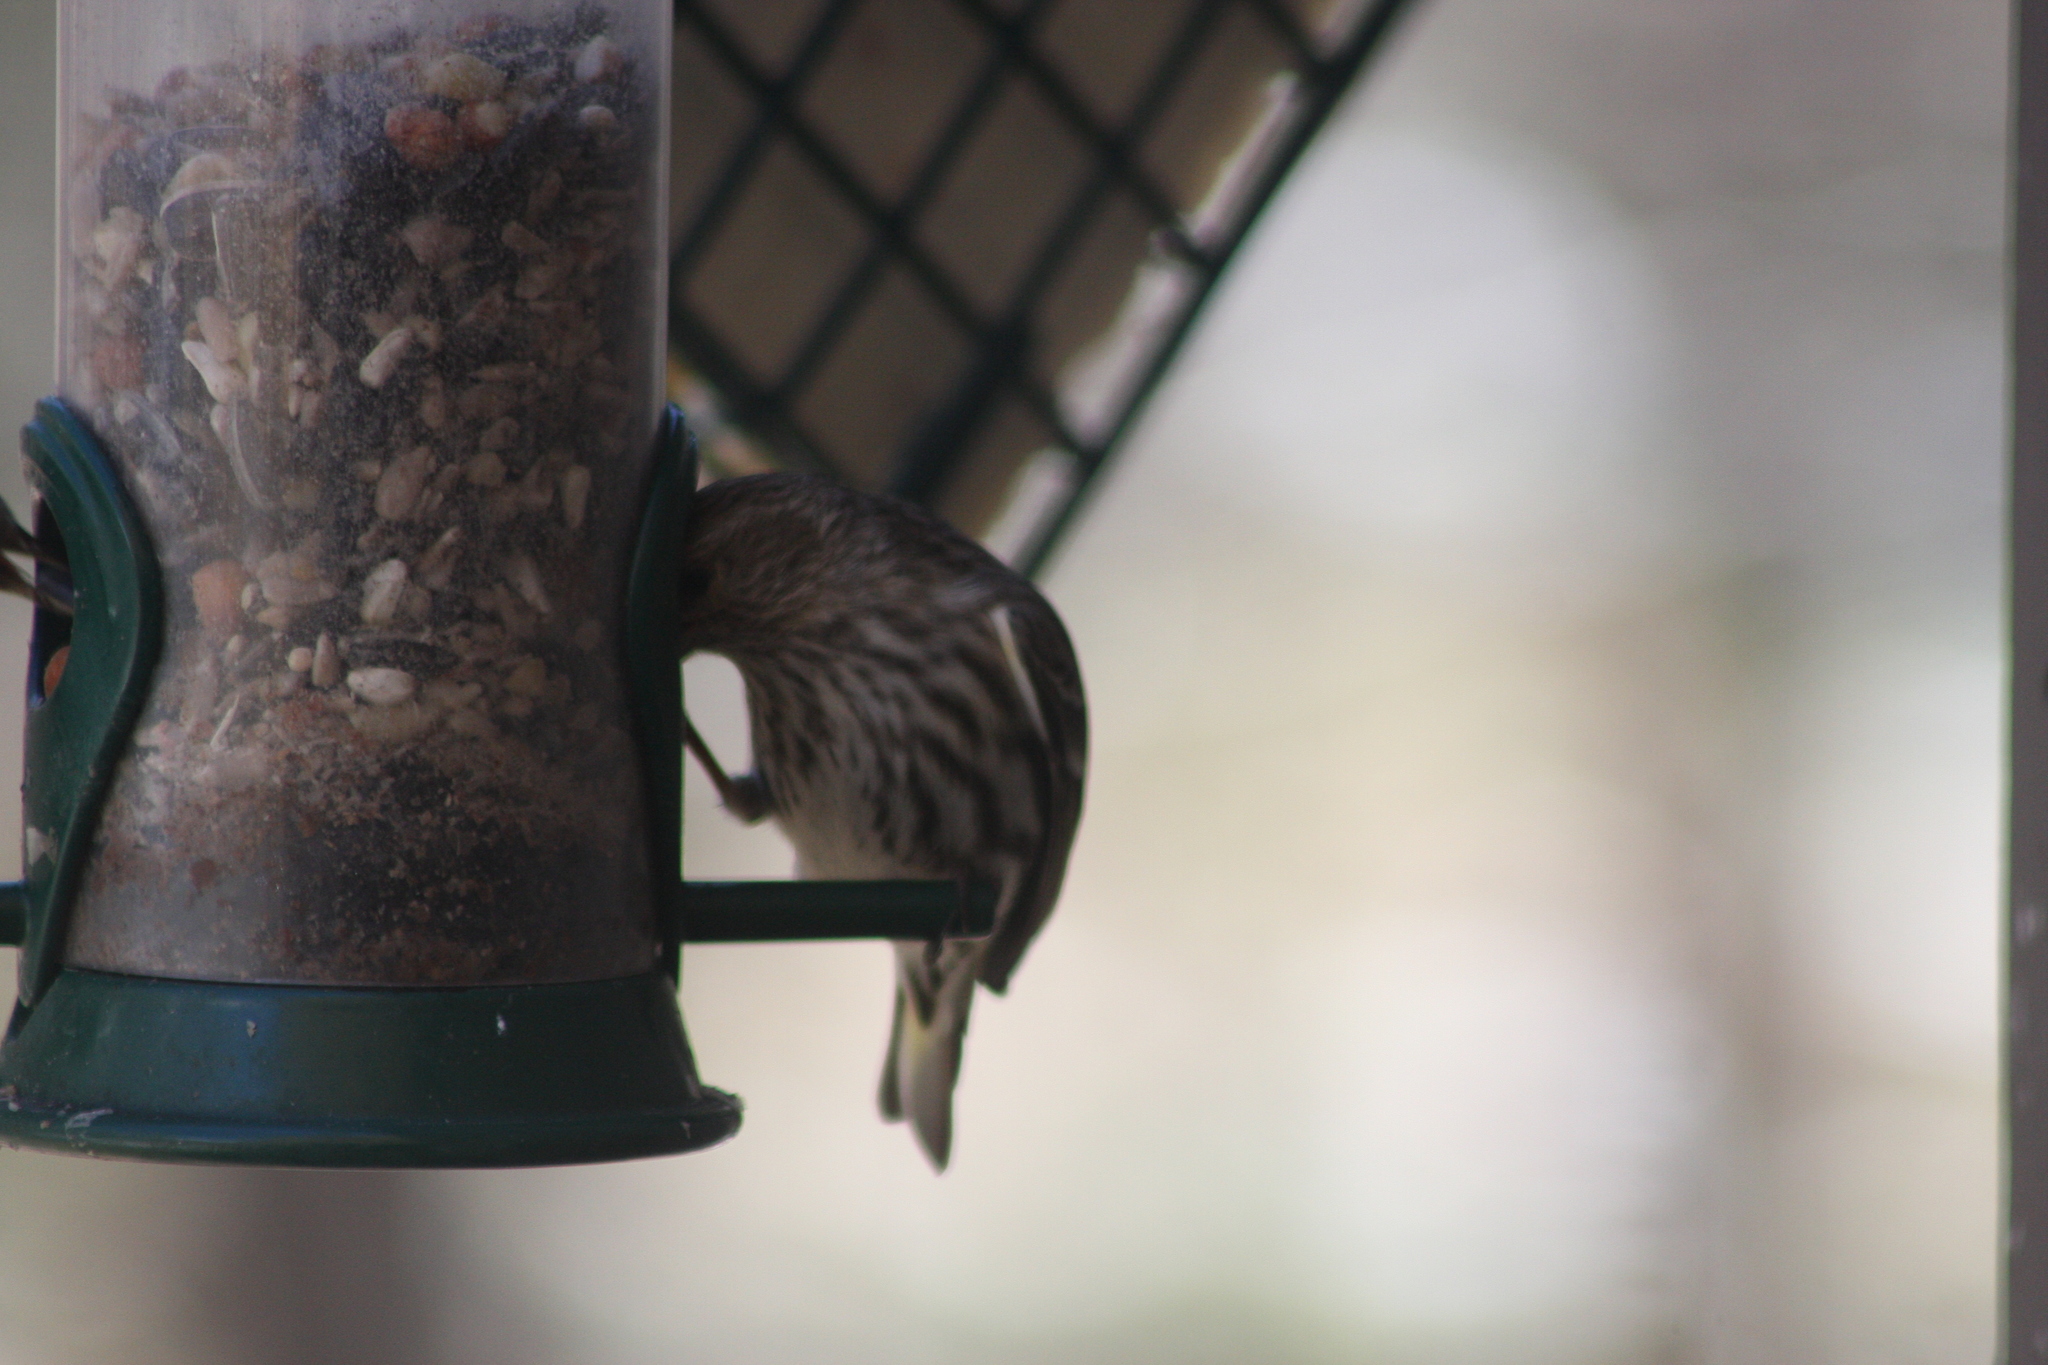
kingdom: Animalia
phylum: Chordata
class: Aves
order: Passeriformes
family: Fringillidae
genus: Spinus
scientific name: Spinus pinus
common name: Pine siskin
